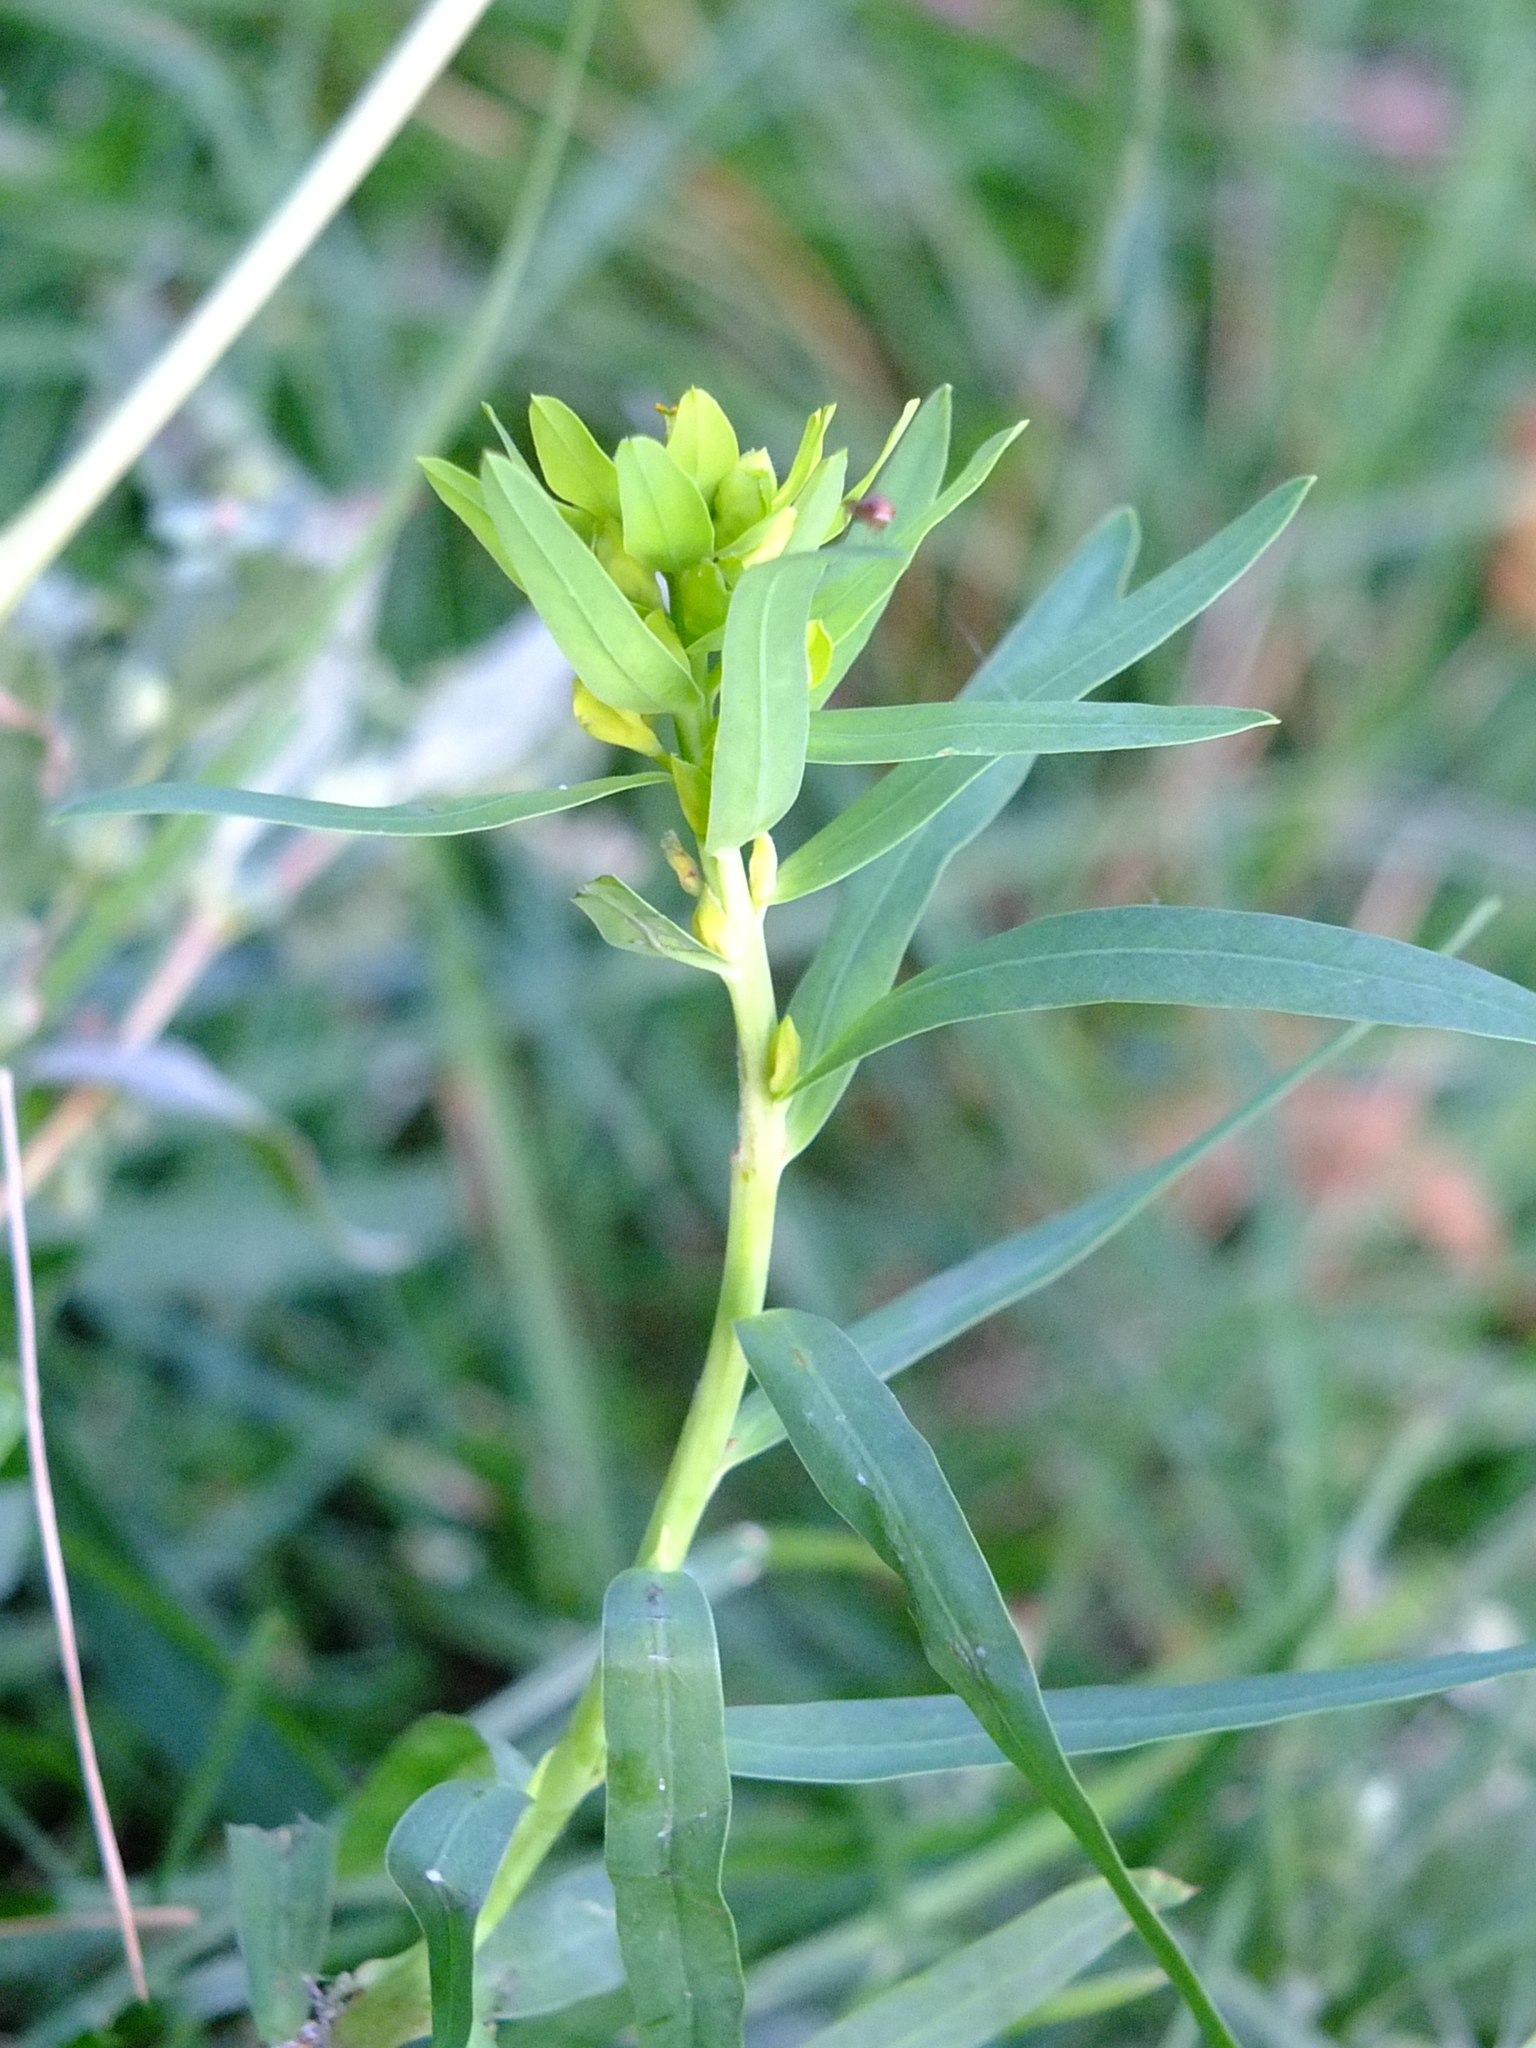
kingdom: Plantae
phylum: Tracheophyta
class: Magnoliopsida
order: Malpighiales
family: Euphorbiaceae
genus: Euphorbia
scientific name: Euphorbia virgata
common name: Leafy spurge
